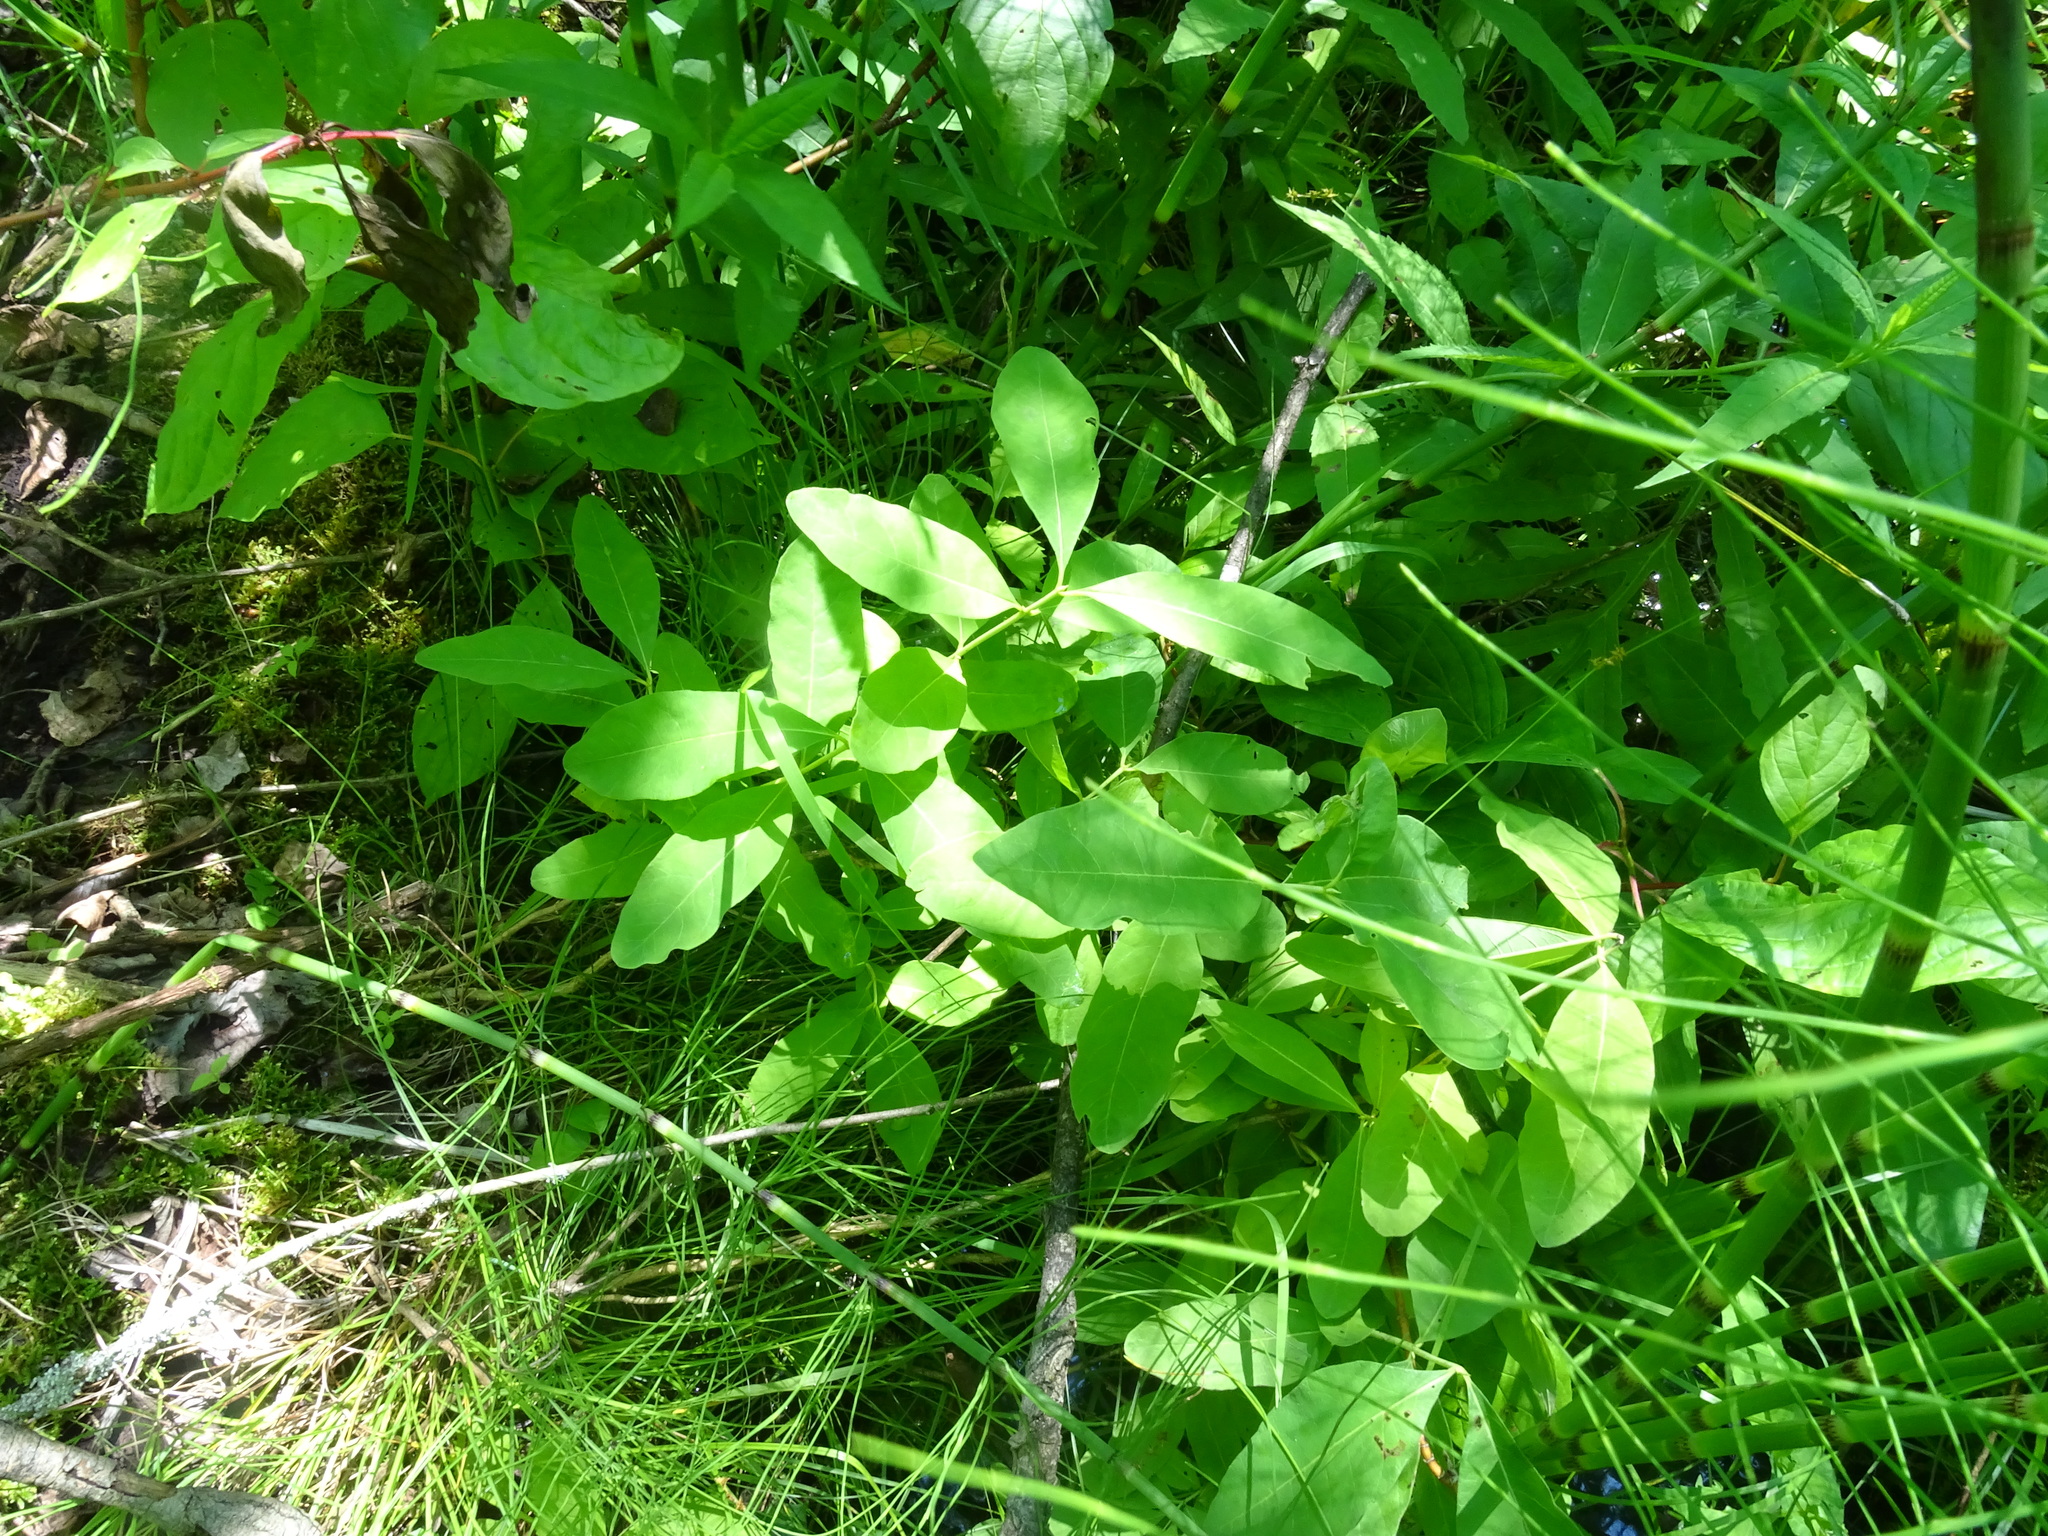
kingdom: Plantae
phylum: Tracheophyta
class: Magnoliopsida
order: Dipsacales
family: Caprifoliaceae
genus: Lonicera
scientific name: Lonicera oblongifolia
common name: Swamp fly honeysuckle
